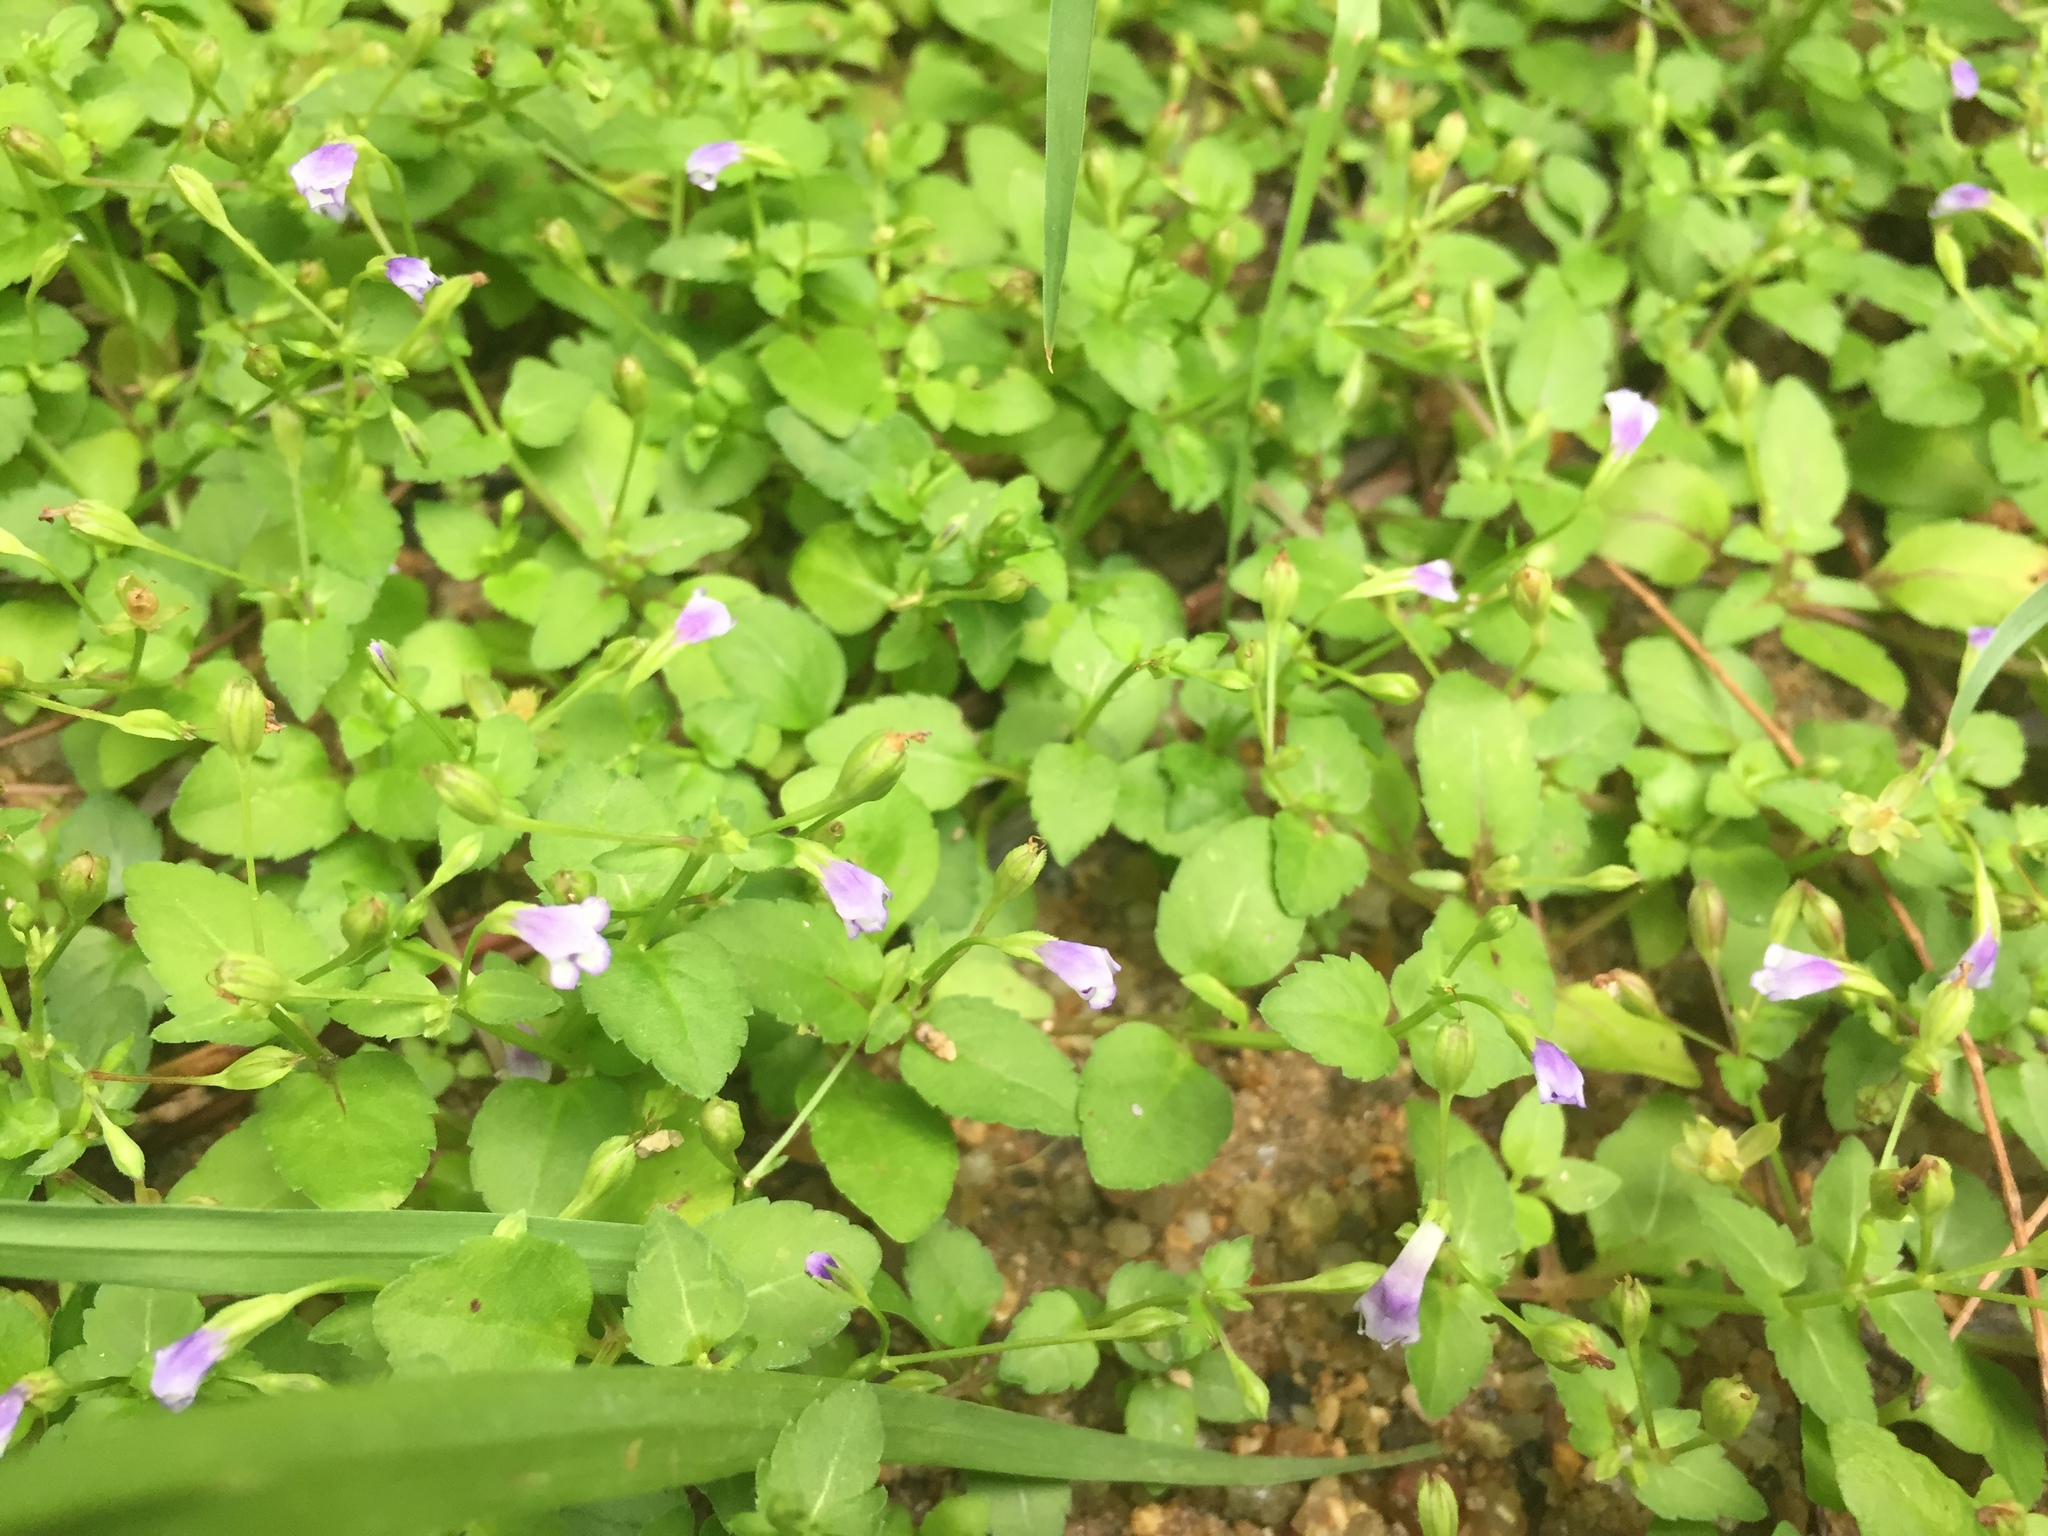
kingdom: Plantae
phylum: Tracheophyta
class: Magnoliopsida
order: Lamiales
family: Linderniaceae
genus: Torenia
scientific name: Torenia crustacea
